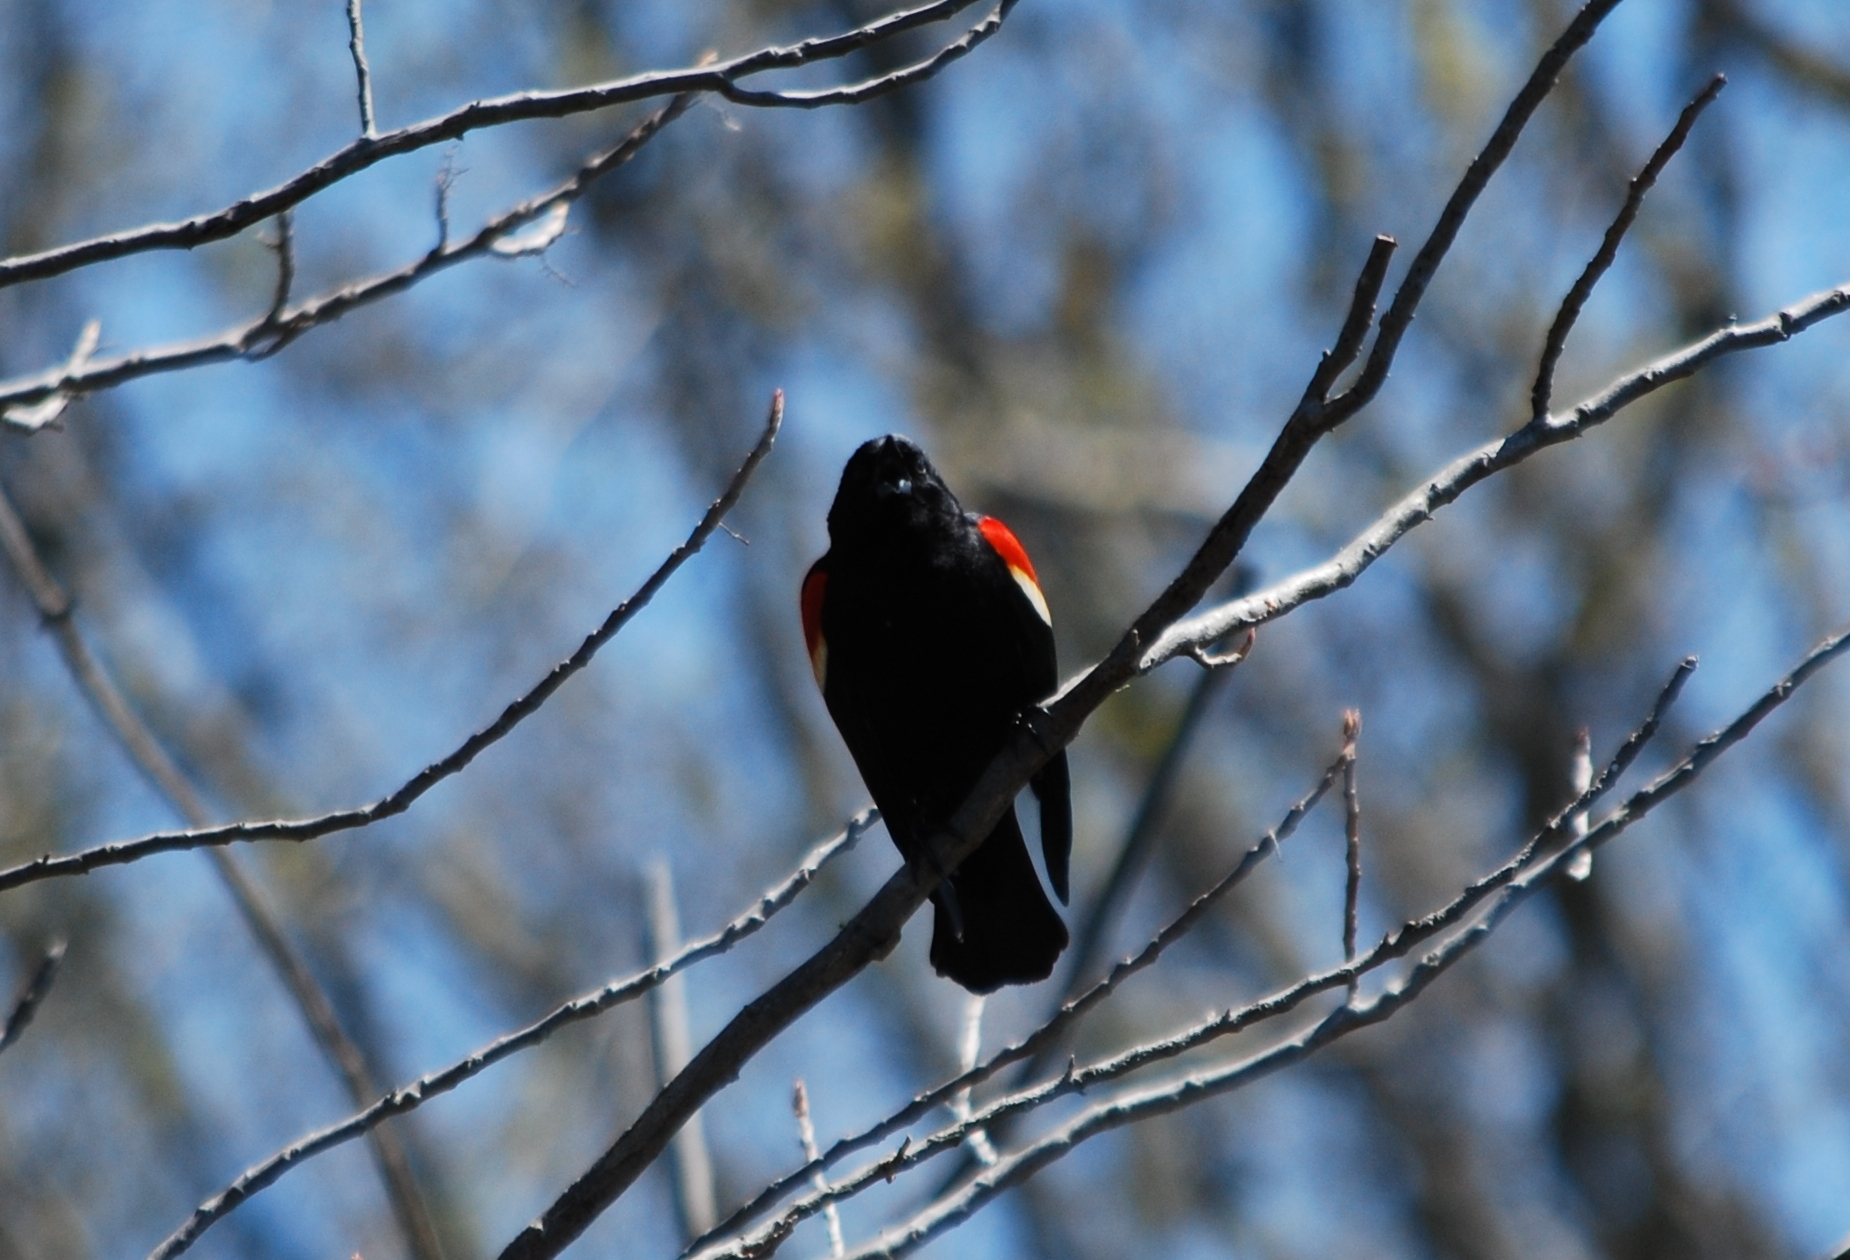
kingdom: Animalia
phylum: Chordata
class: Aves
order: Passeriformes
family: Icteridae
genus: Agelaius
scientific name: Agelaius phoeniceus
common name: Red-winged blackbird
